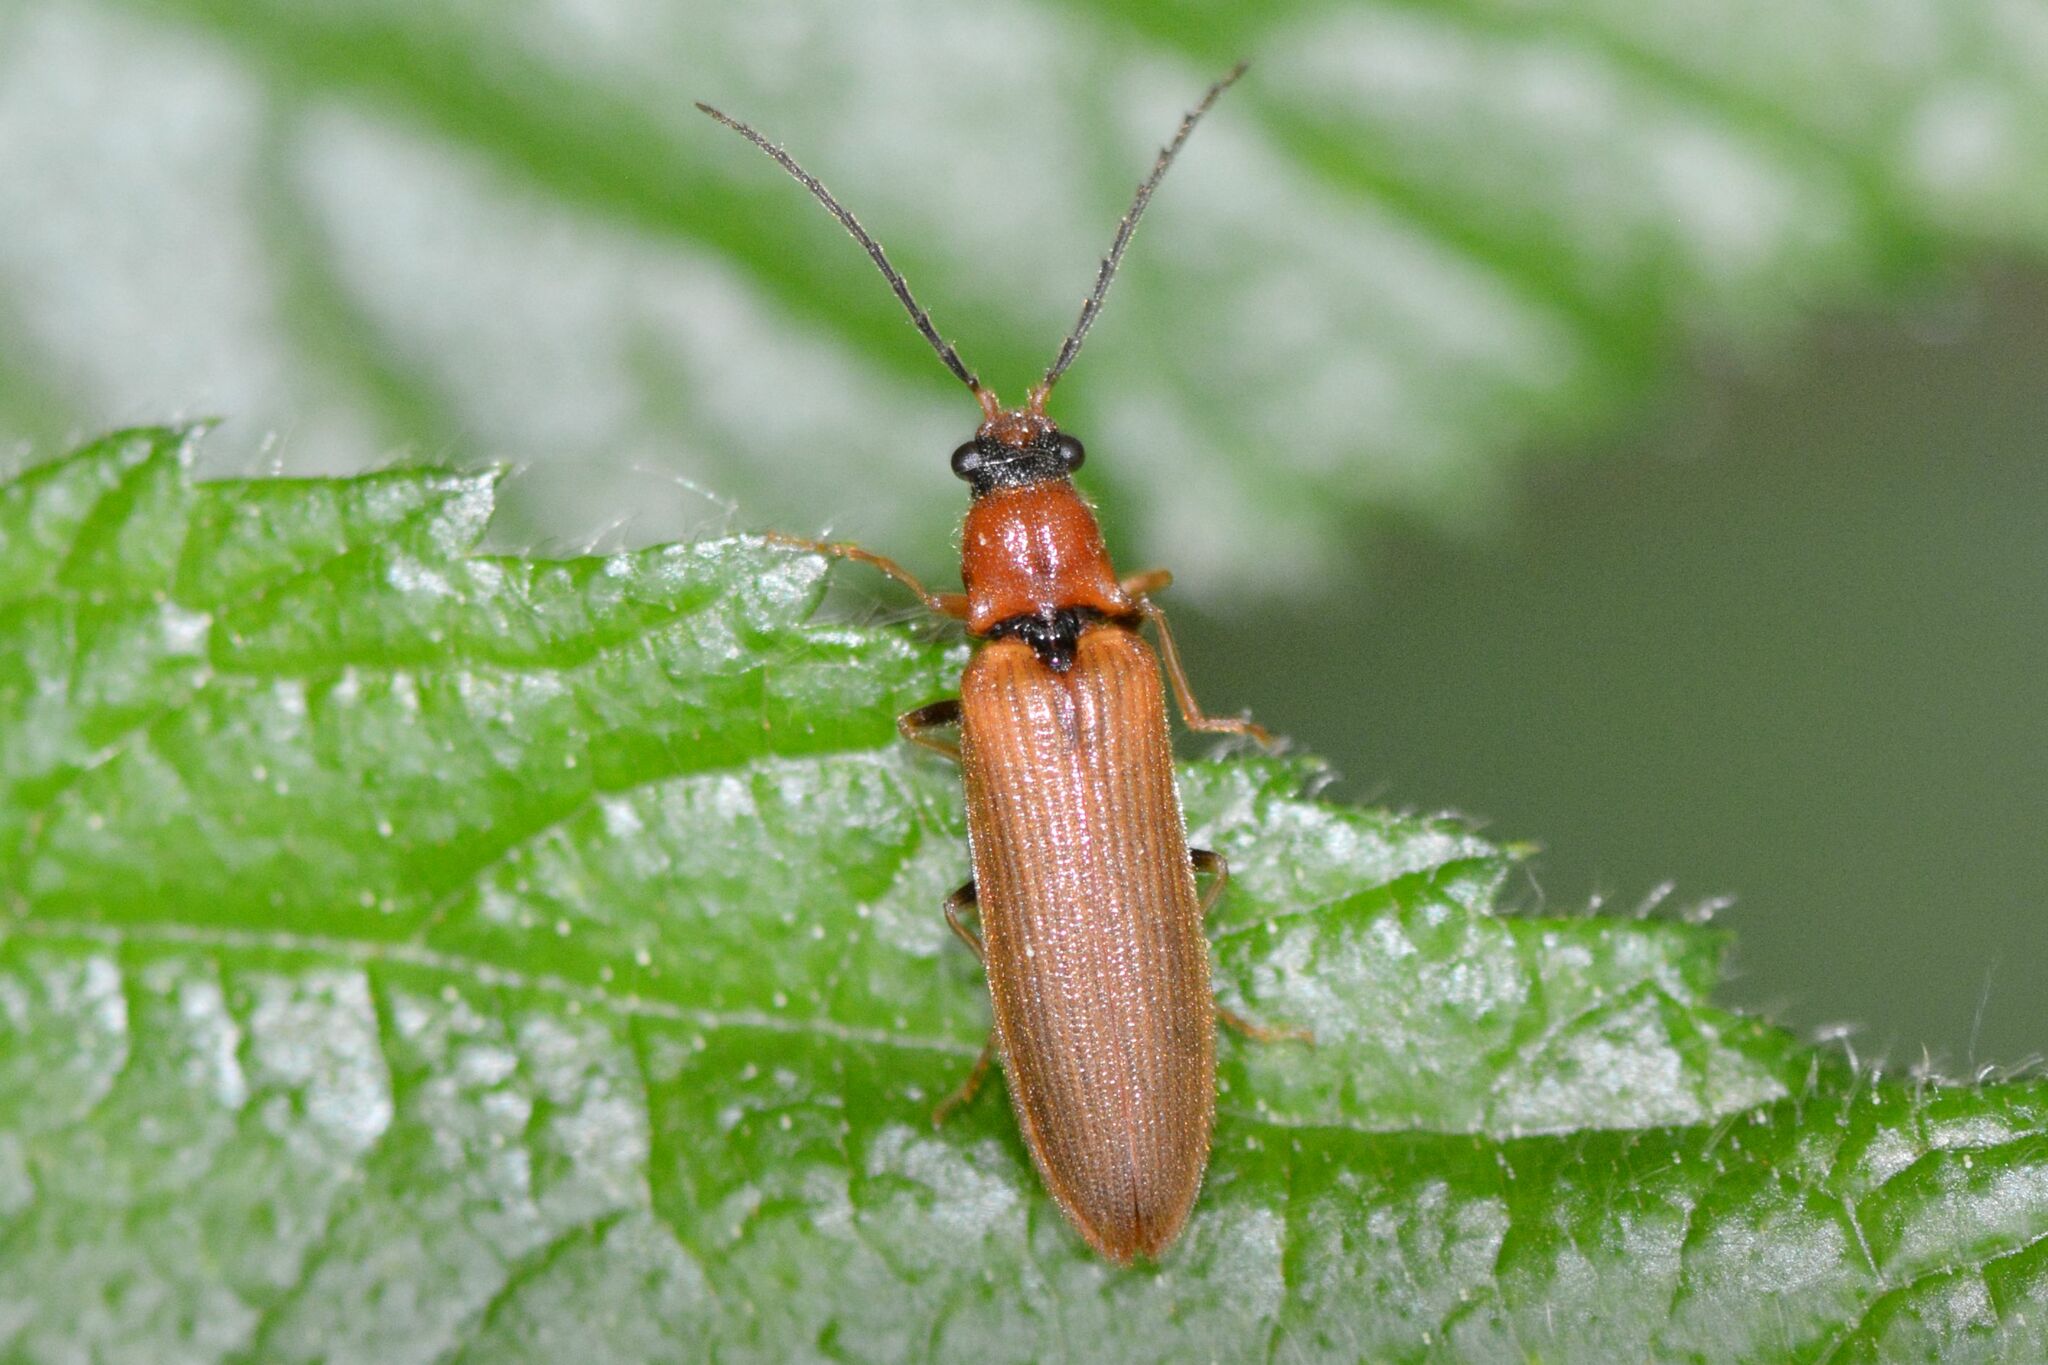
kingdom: Animalia
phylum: Arthropoda
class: Insecta
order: Coleoptera
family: Elateridae
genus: Denticollis
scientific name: Denticollis linearis
